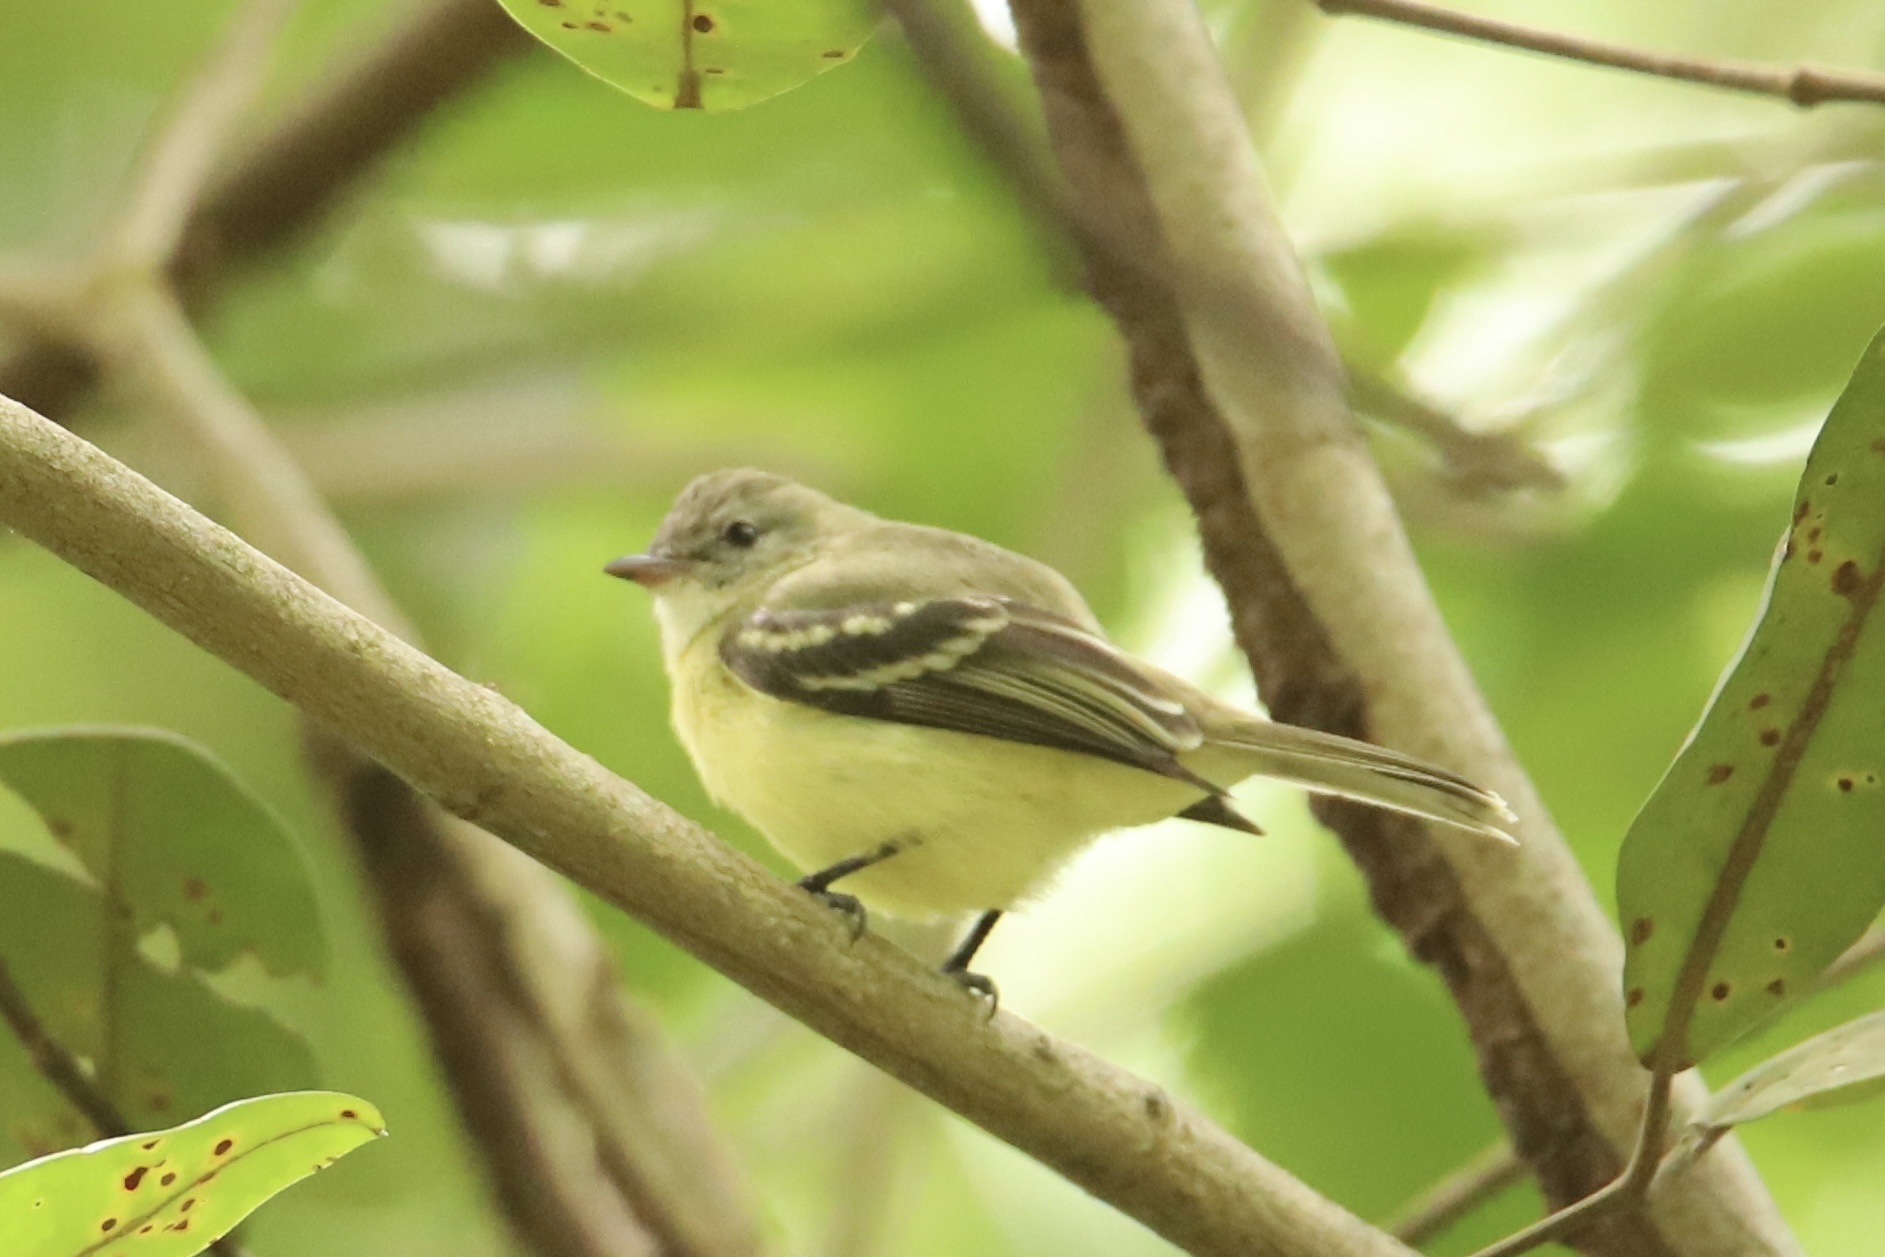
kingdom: Animalia
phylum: Chordata
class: Aves
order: Passeriformes
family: Tyrannidae
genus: Camptostoma
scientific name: Camptostoma obsoletum
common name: Southern beardless-tyrannulet
